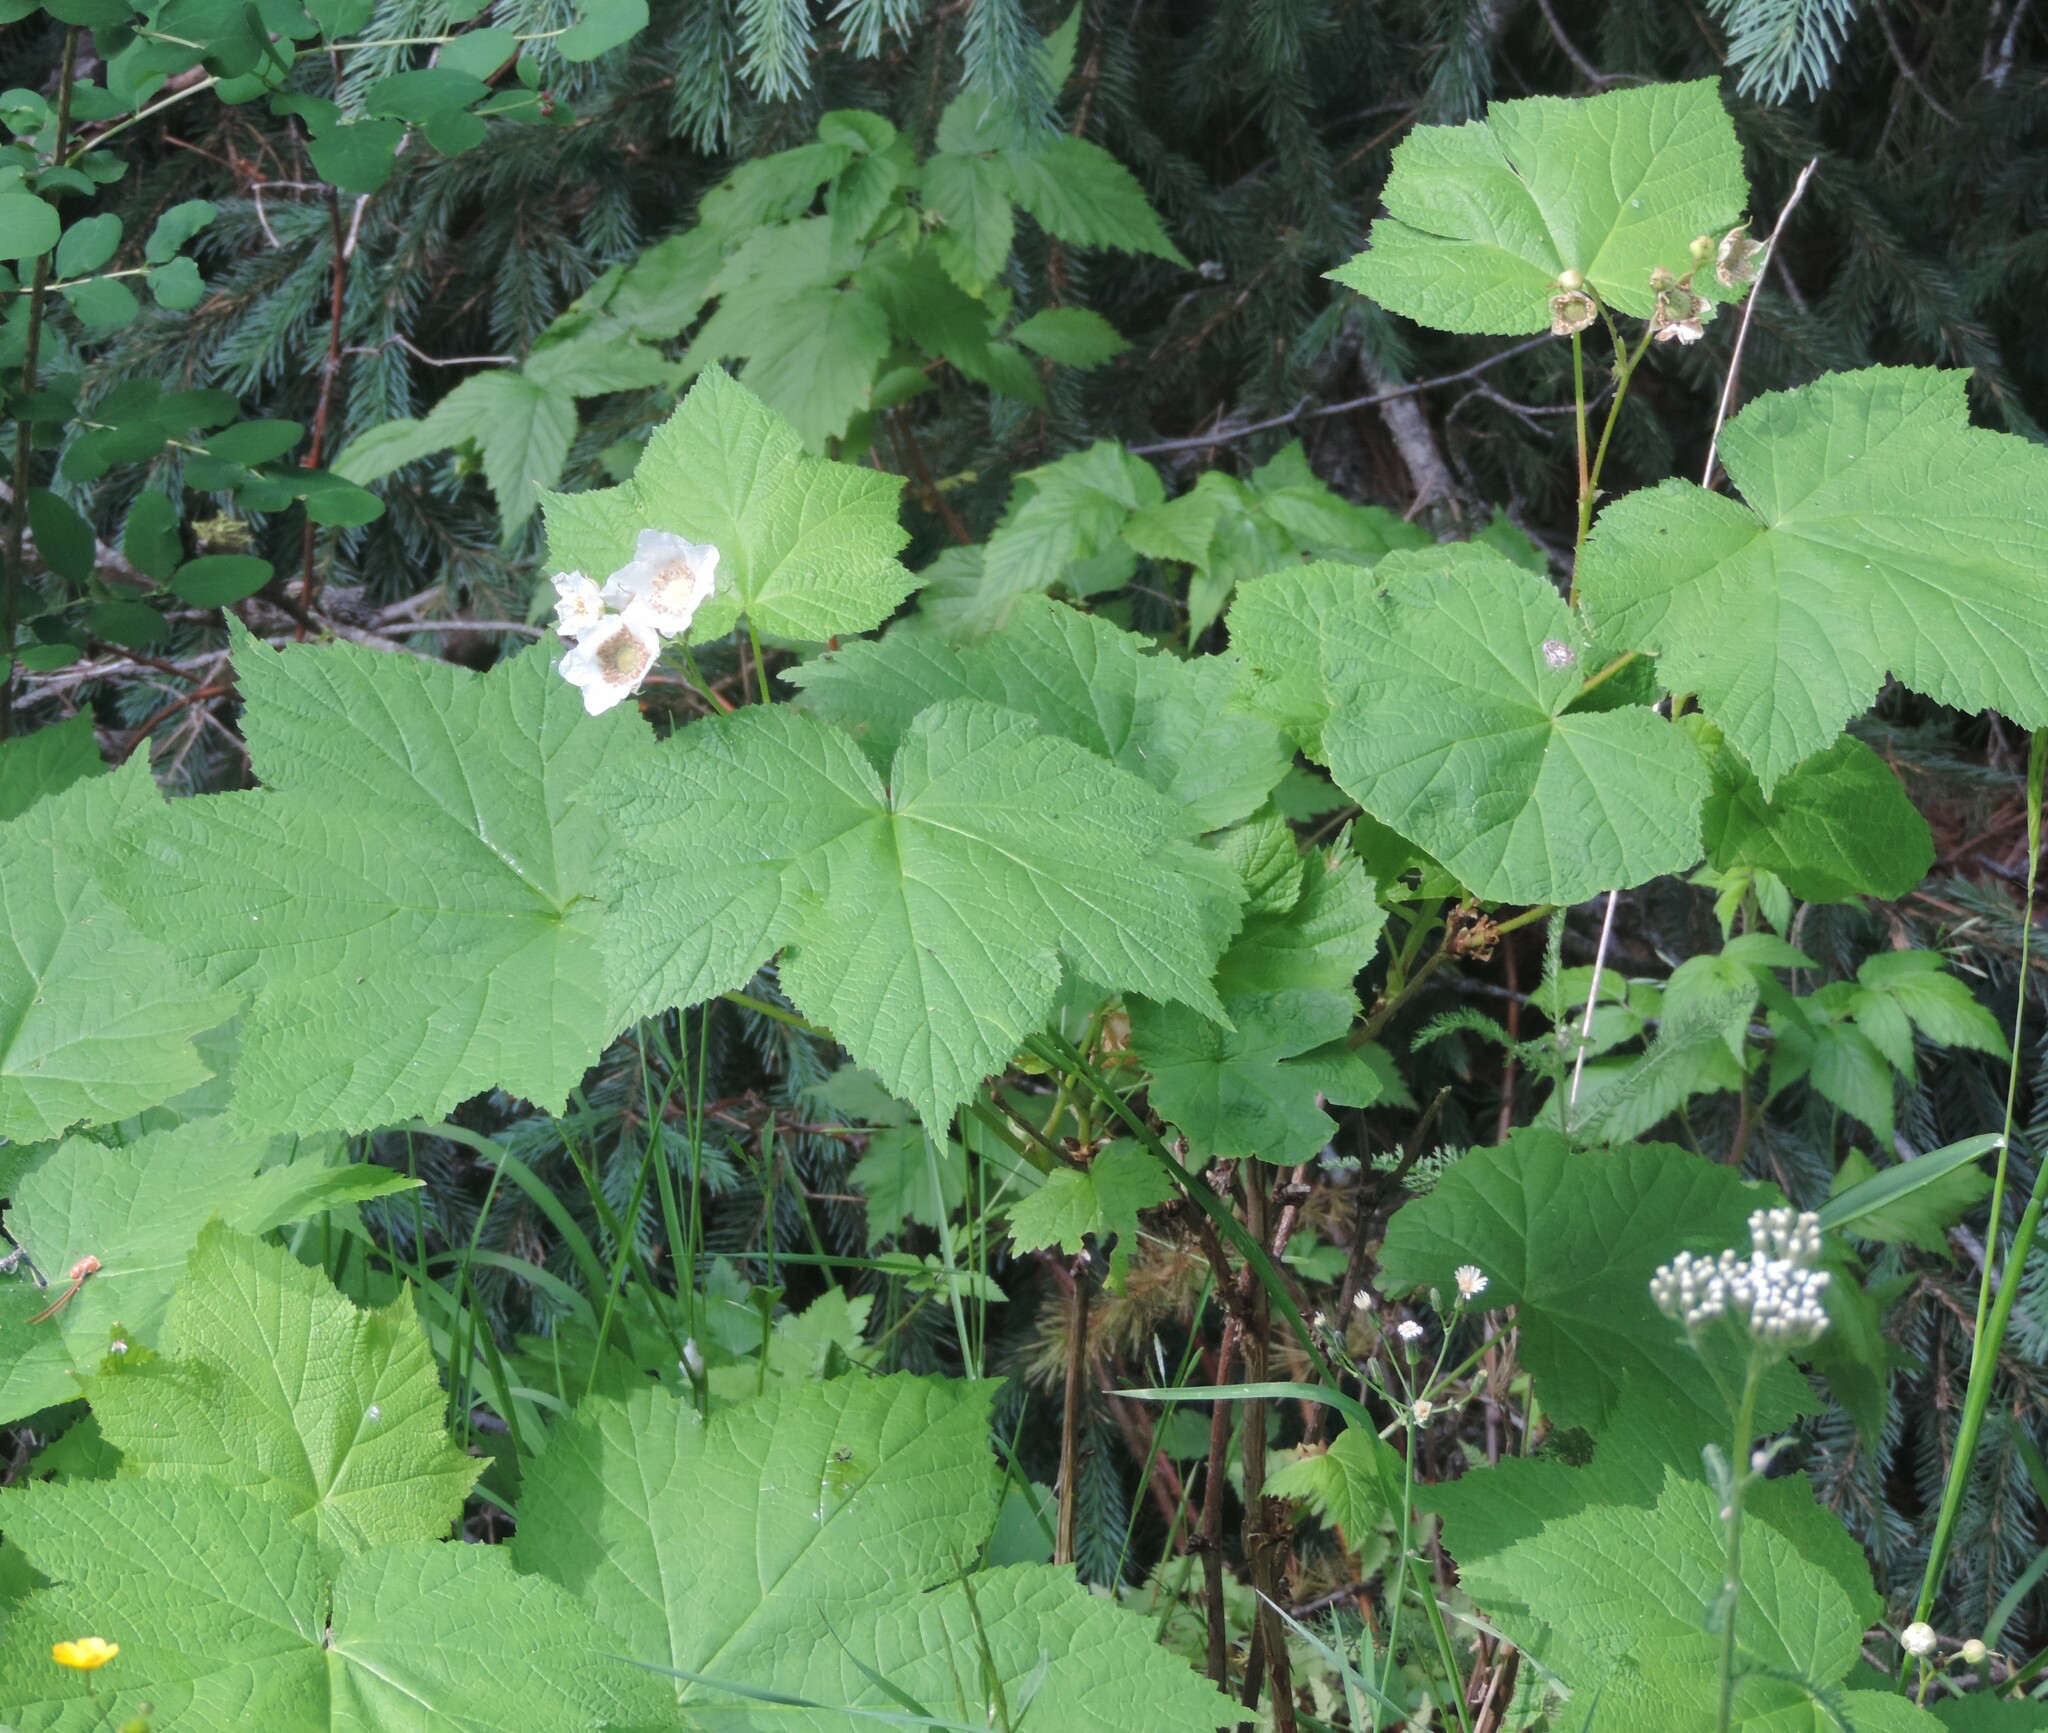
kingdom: Plantae
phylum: Tracheophyta
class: Magnoliopsida
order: Rosales
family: Rosaceae
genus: Rubus
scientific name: Rubus parviflorus
